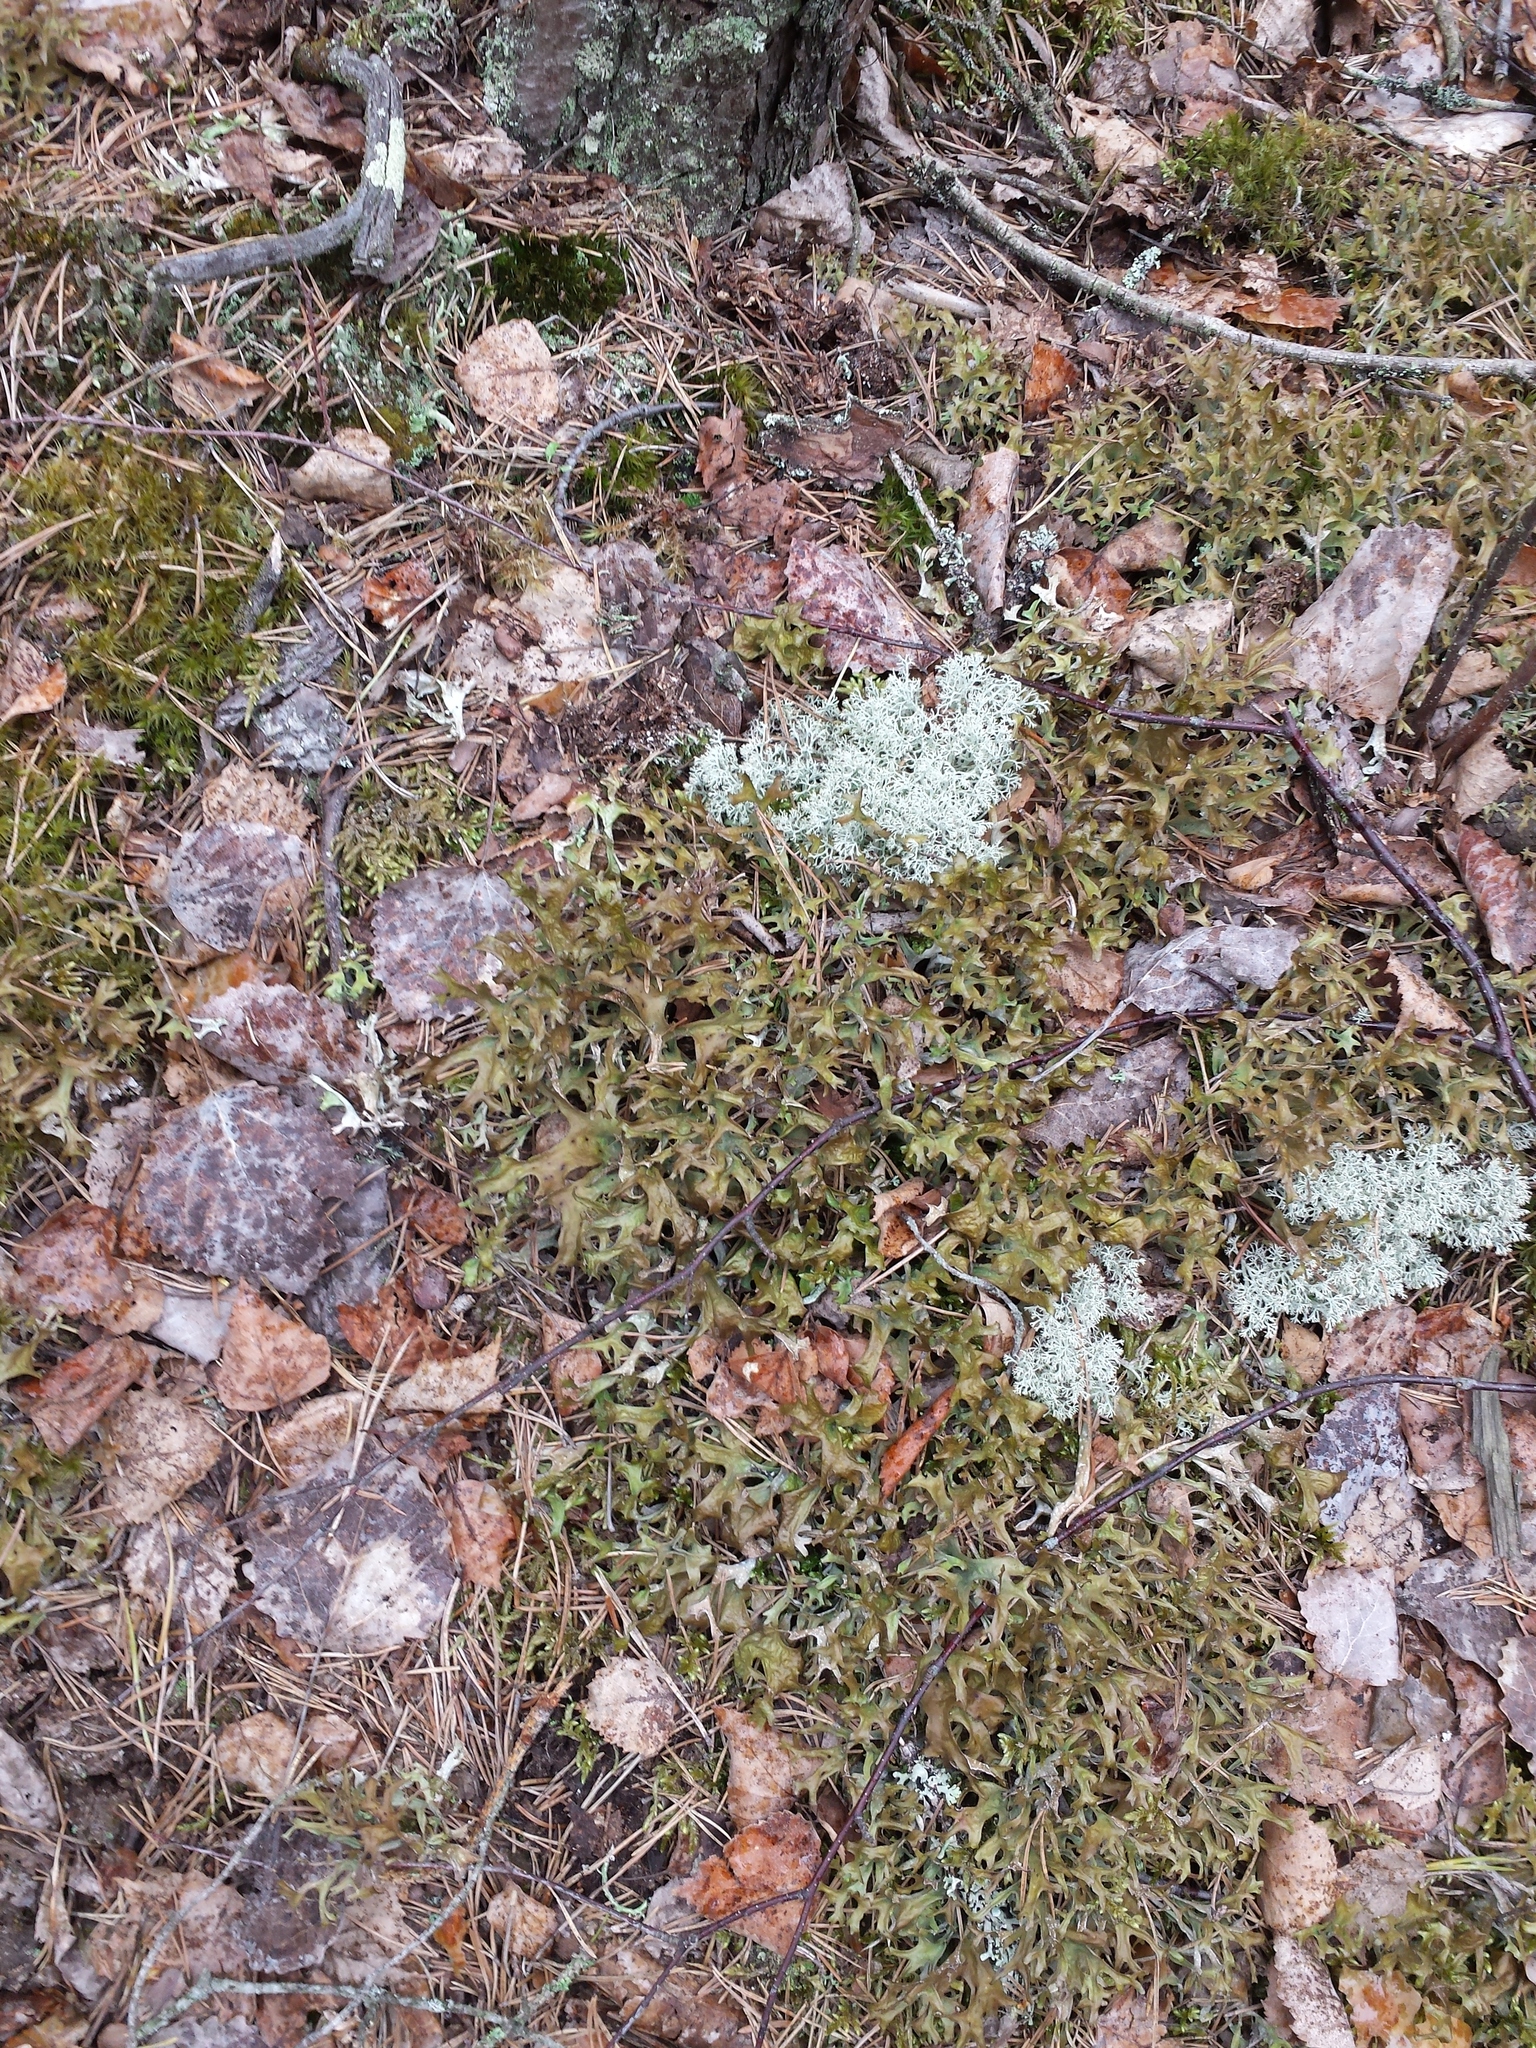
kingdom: Fungi
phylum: Ascomycota
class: Lecanoromycetes
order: Lecanorales
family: Parmeliaceae
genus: Cetraria
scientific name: Cetraria islandica
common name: Iceland lichen
